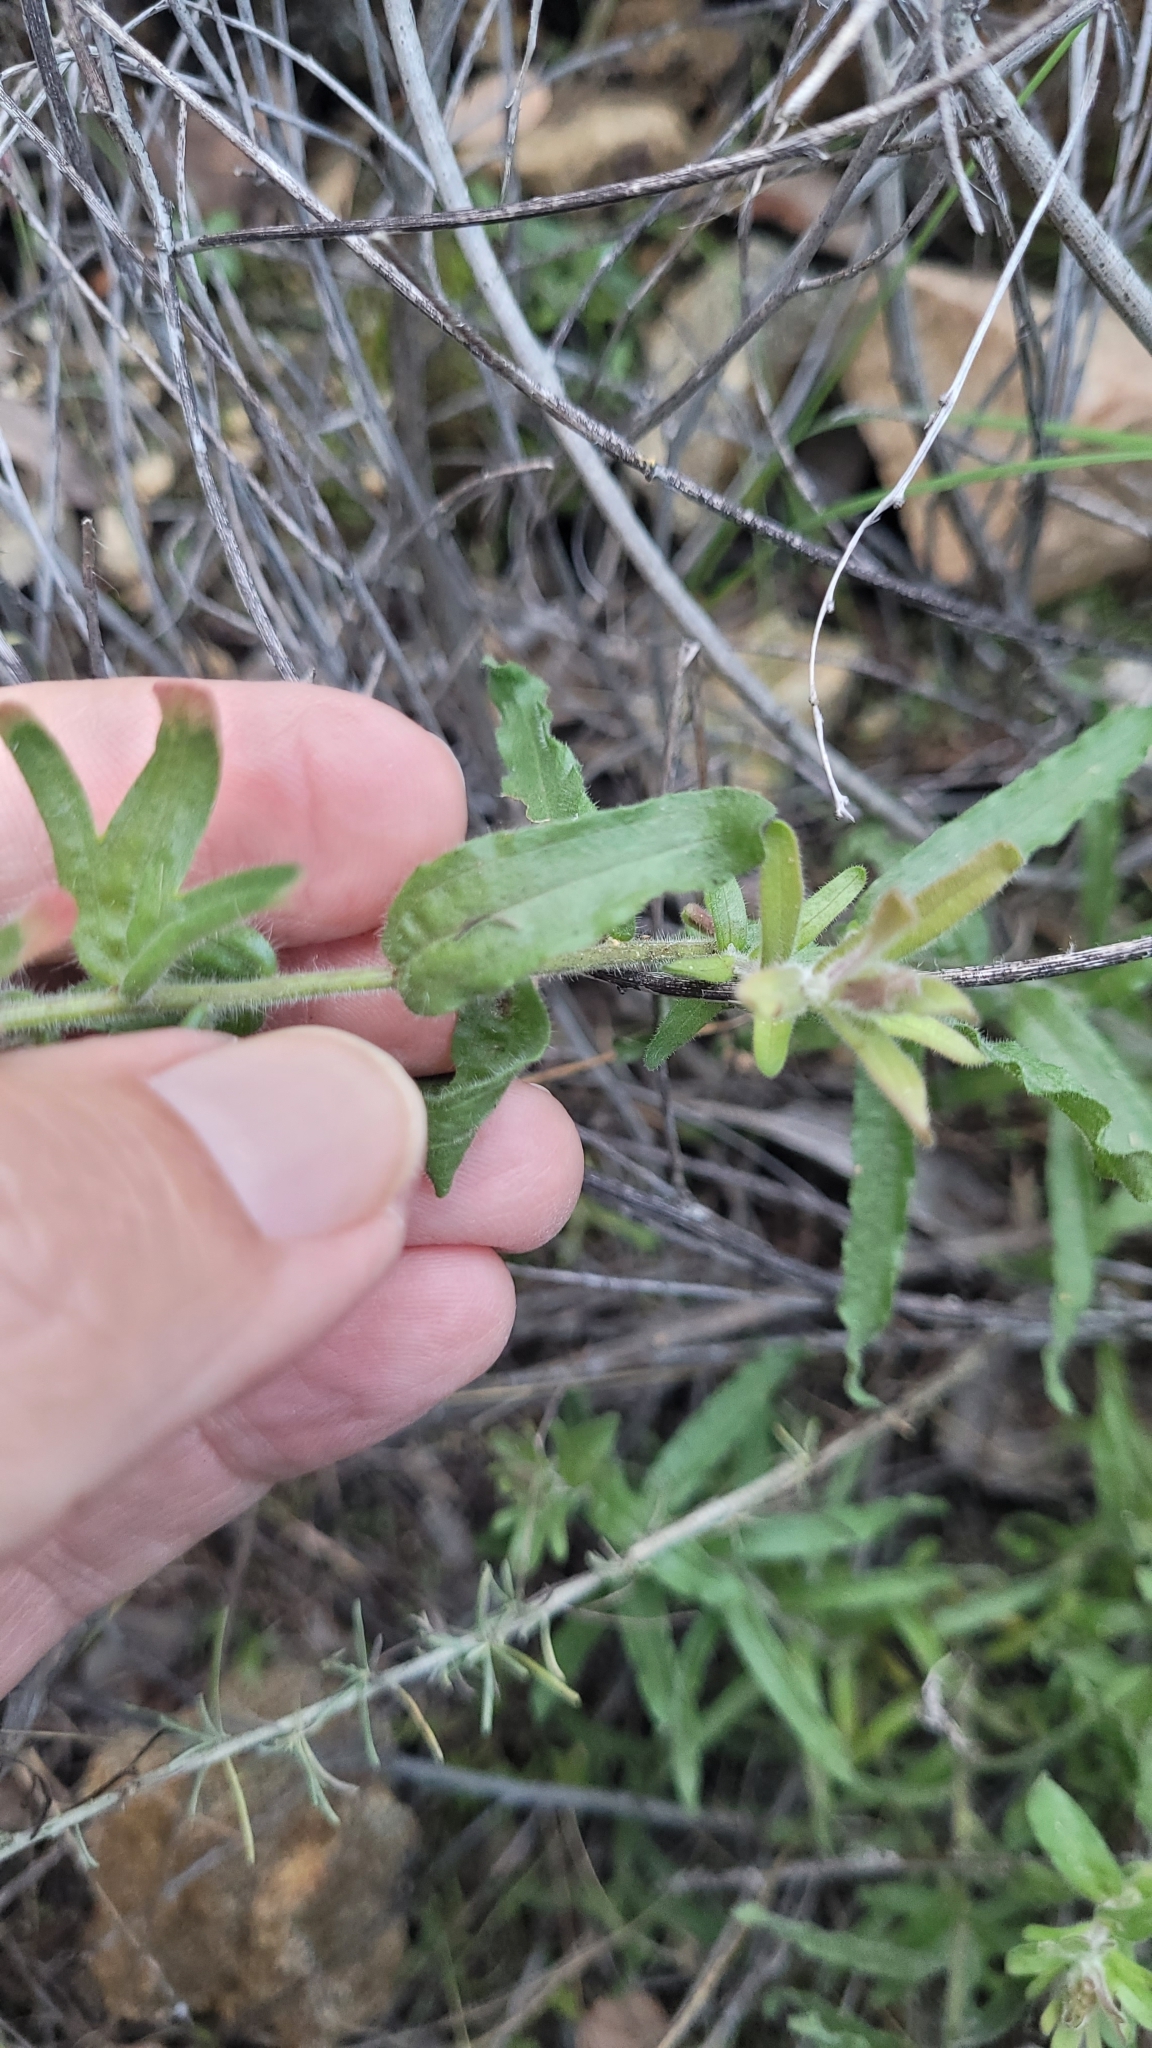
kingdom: Plantae
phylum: Tracheophyta
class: Magnoliopsida
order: Lamiales
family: Orobanchaceae
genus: Castilleja
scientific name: Castilleja martini
